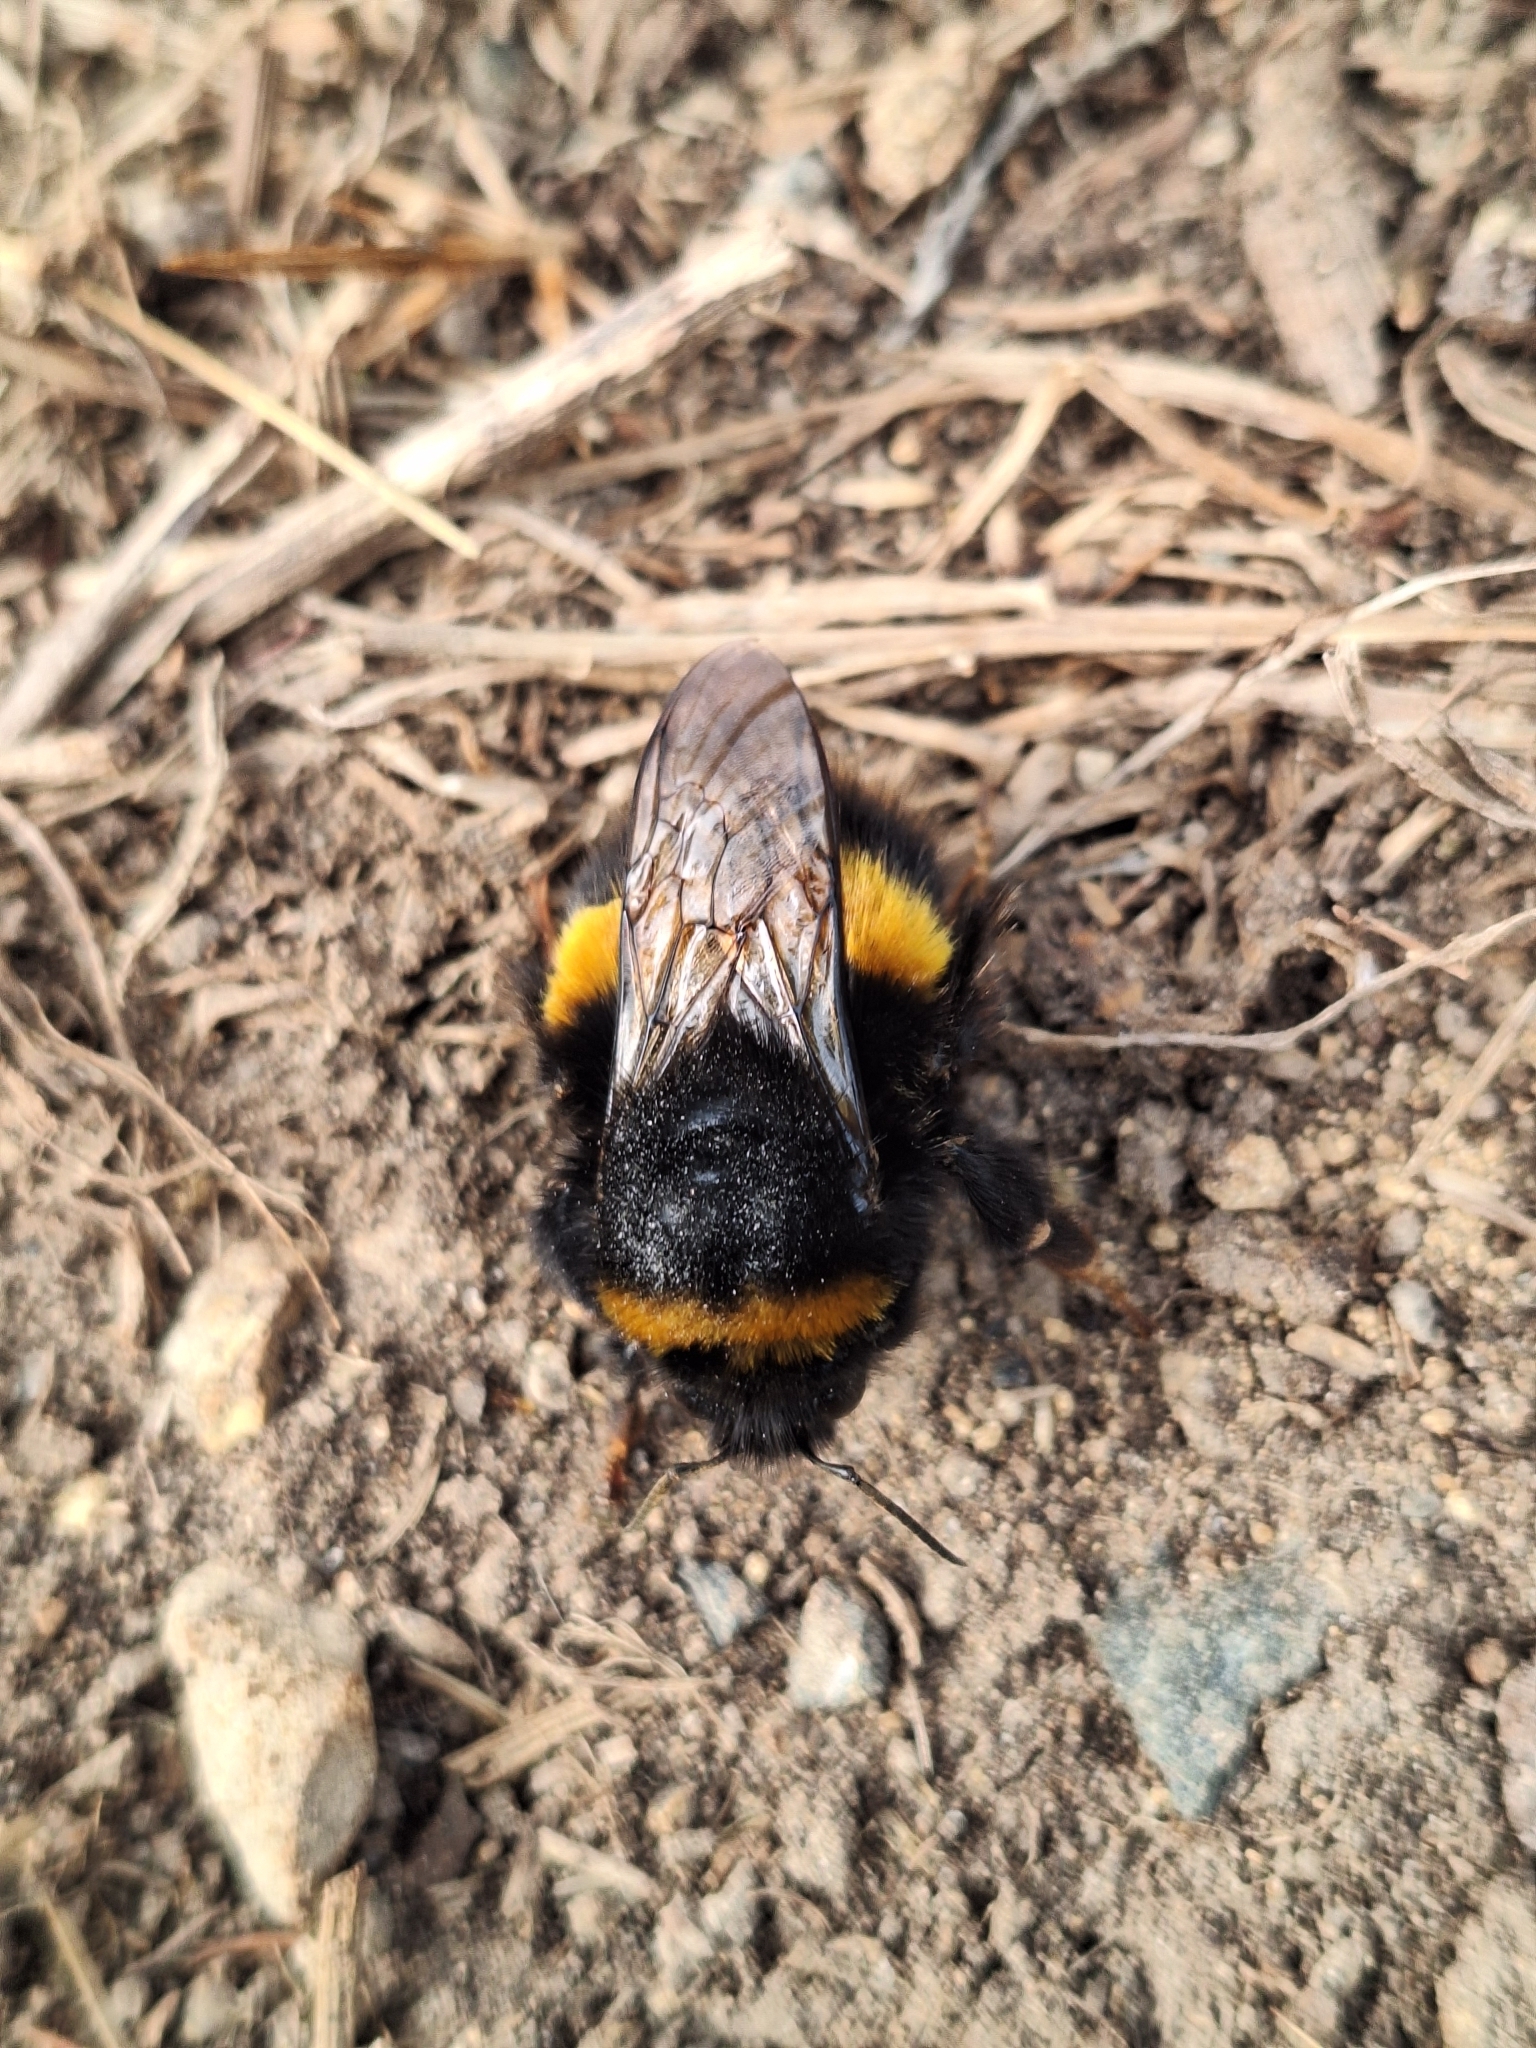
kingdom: Animalia
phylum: Arthropoda
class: Insecta
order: Hymenoptera
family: Apidae
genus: Bombus
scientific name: Bombus terrestris
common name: Buff-tailed bumblebee
